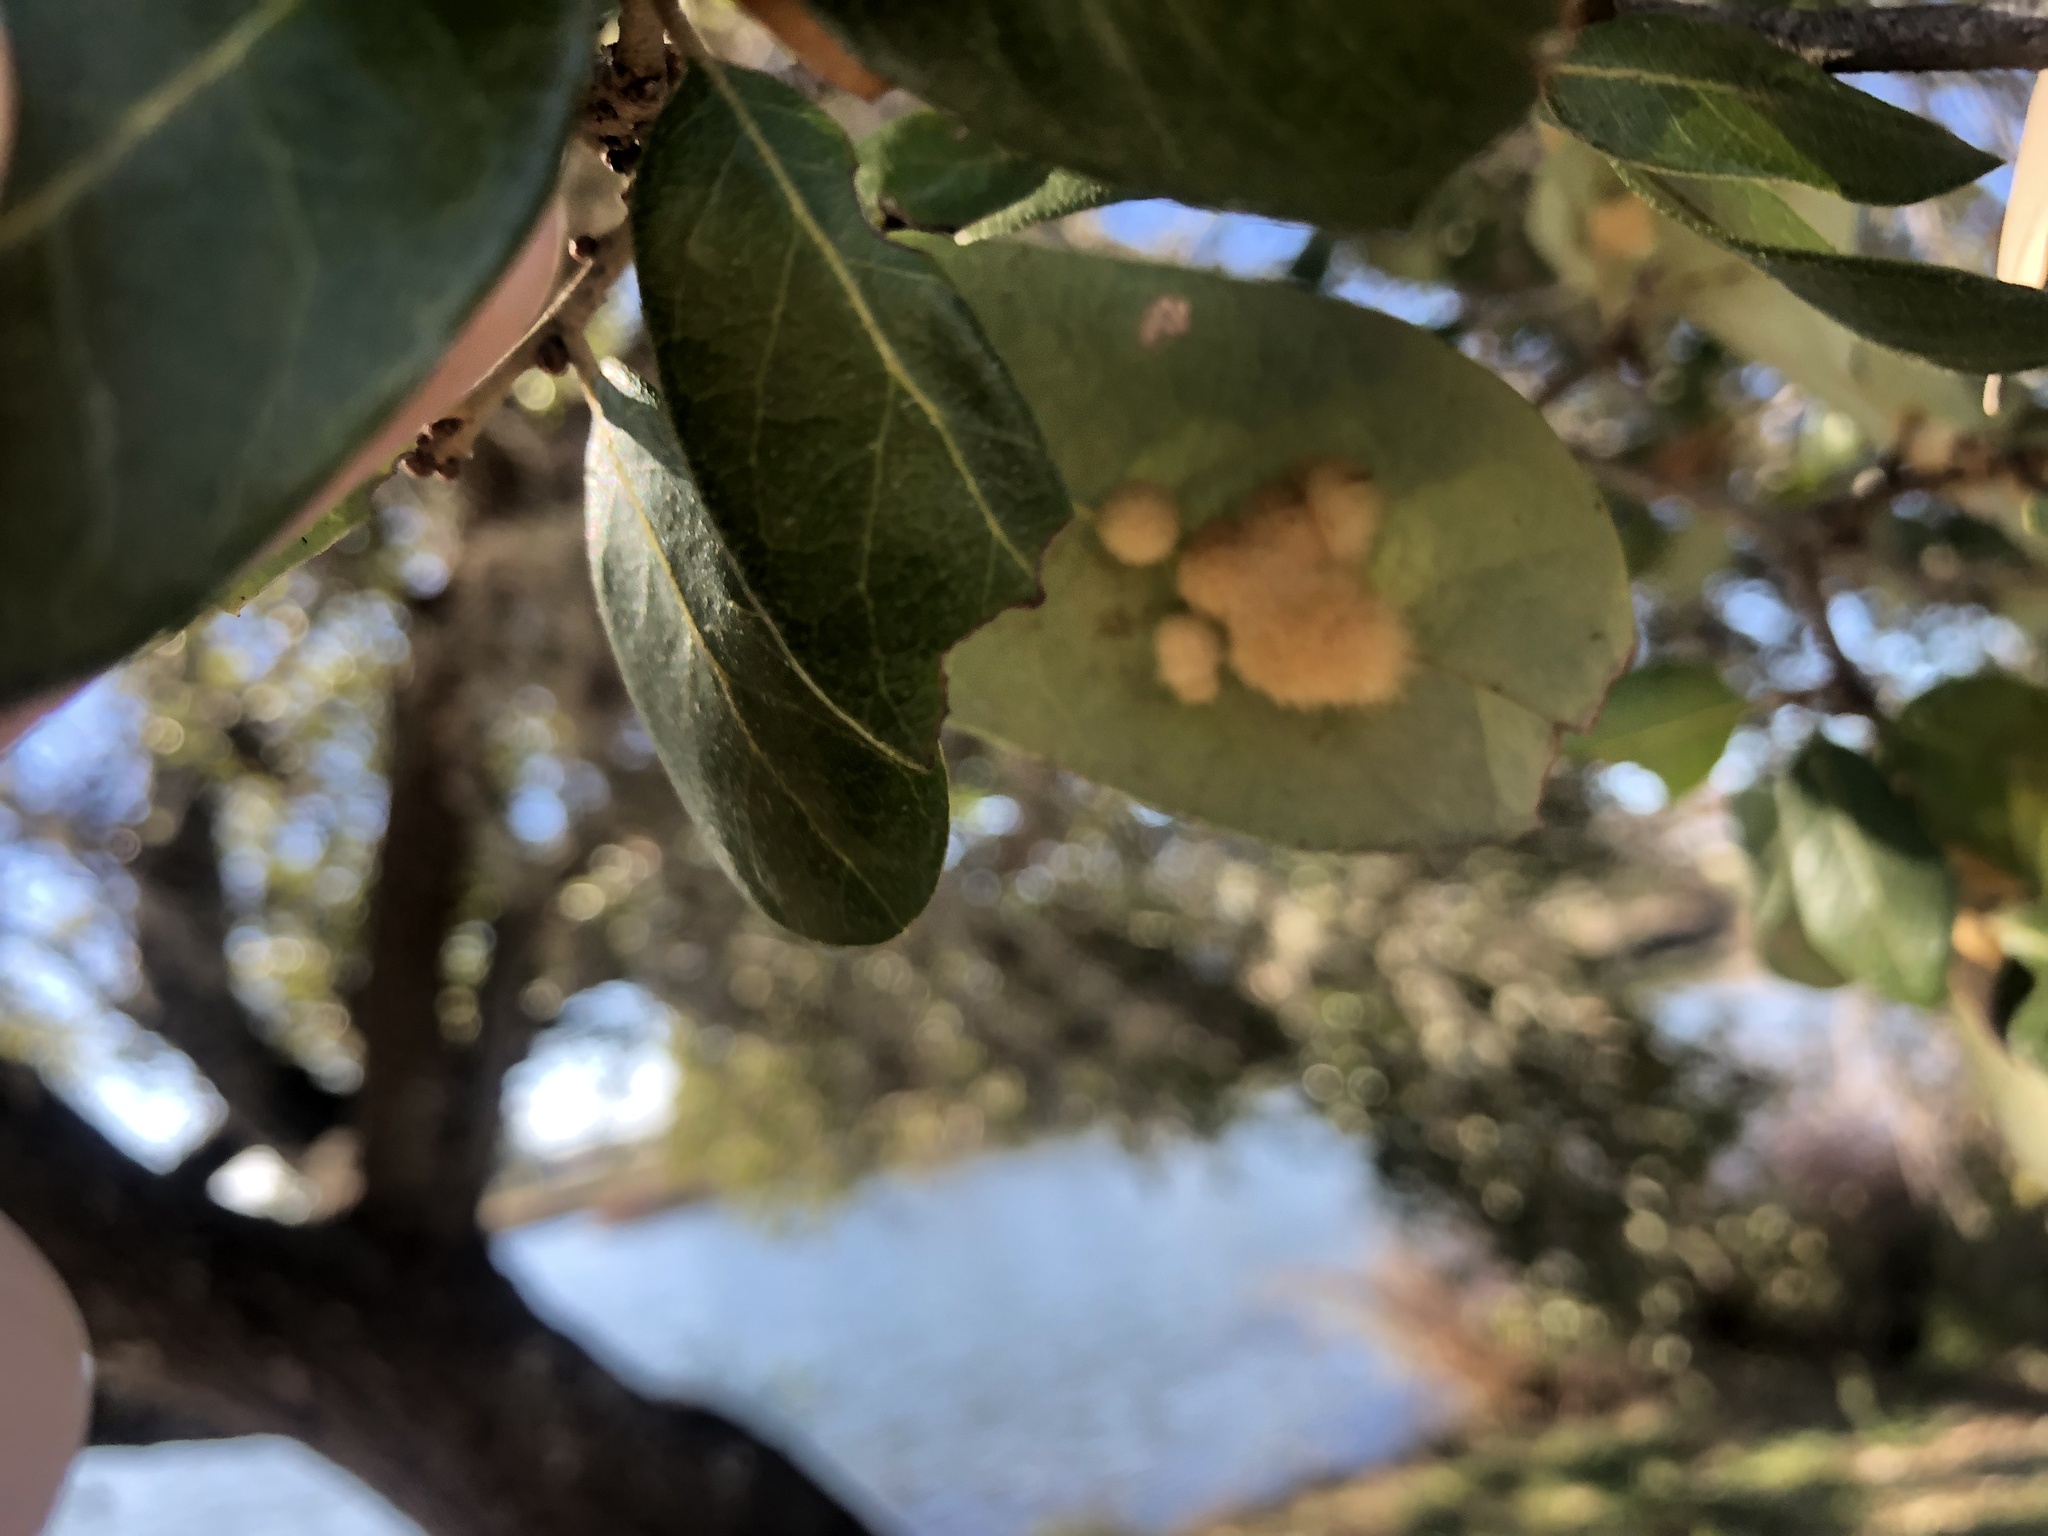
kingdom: Animalia
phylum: Arthropoda
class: Insecta
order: Hymenoptera
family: Cynipidae
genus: Andricus
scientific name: Andricus Druon quercuslanigerum
